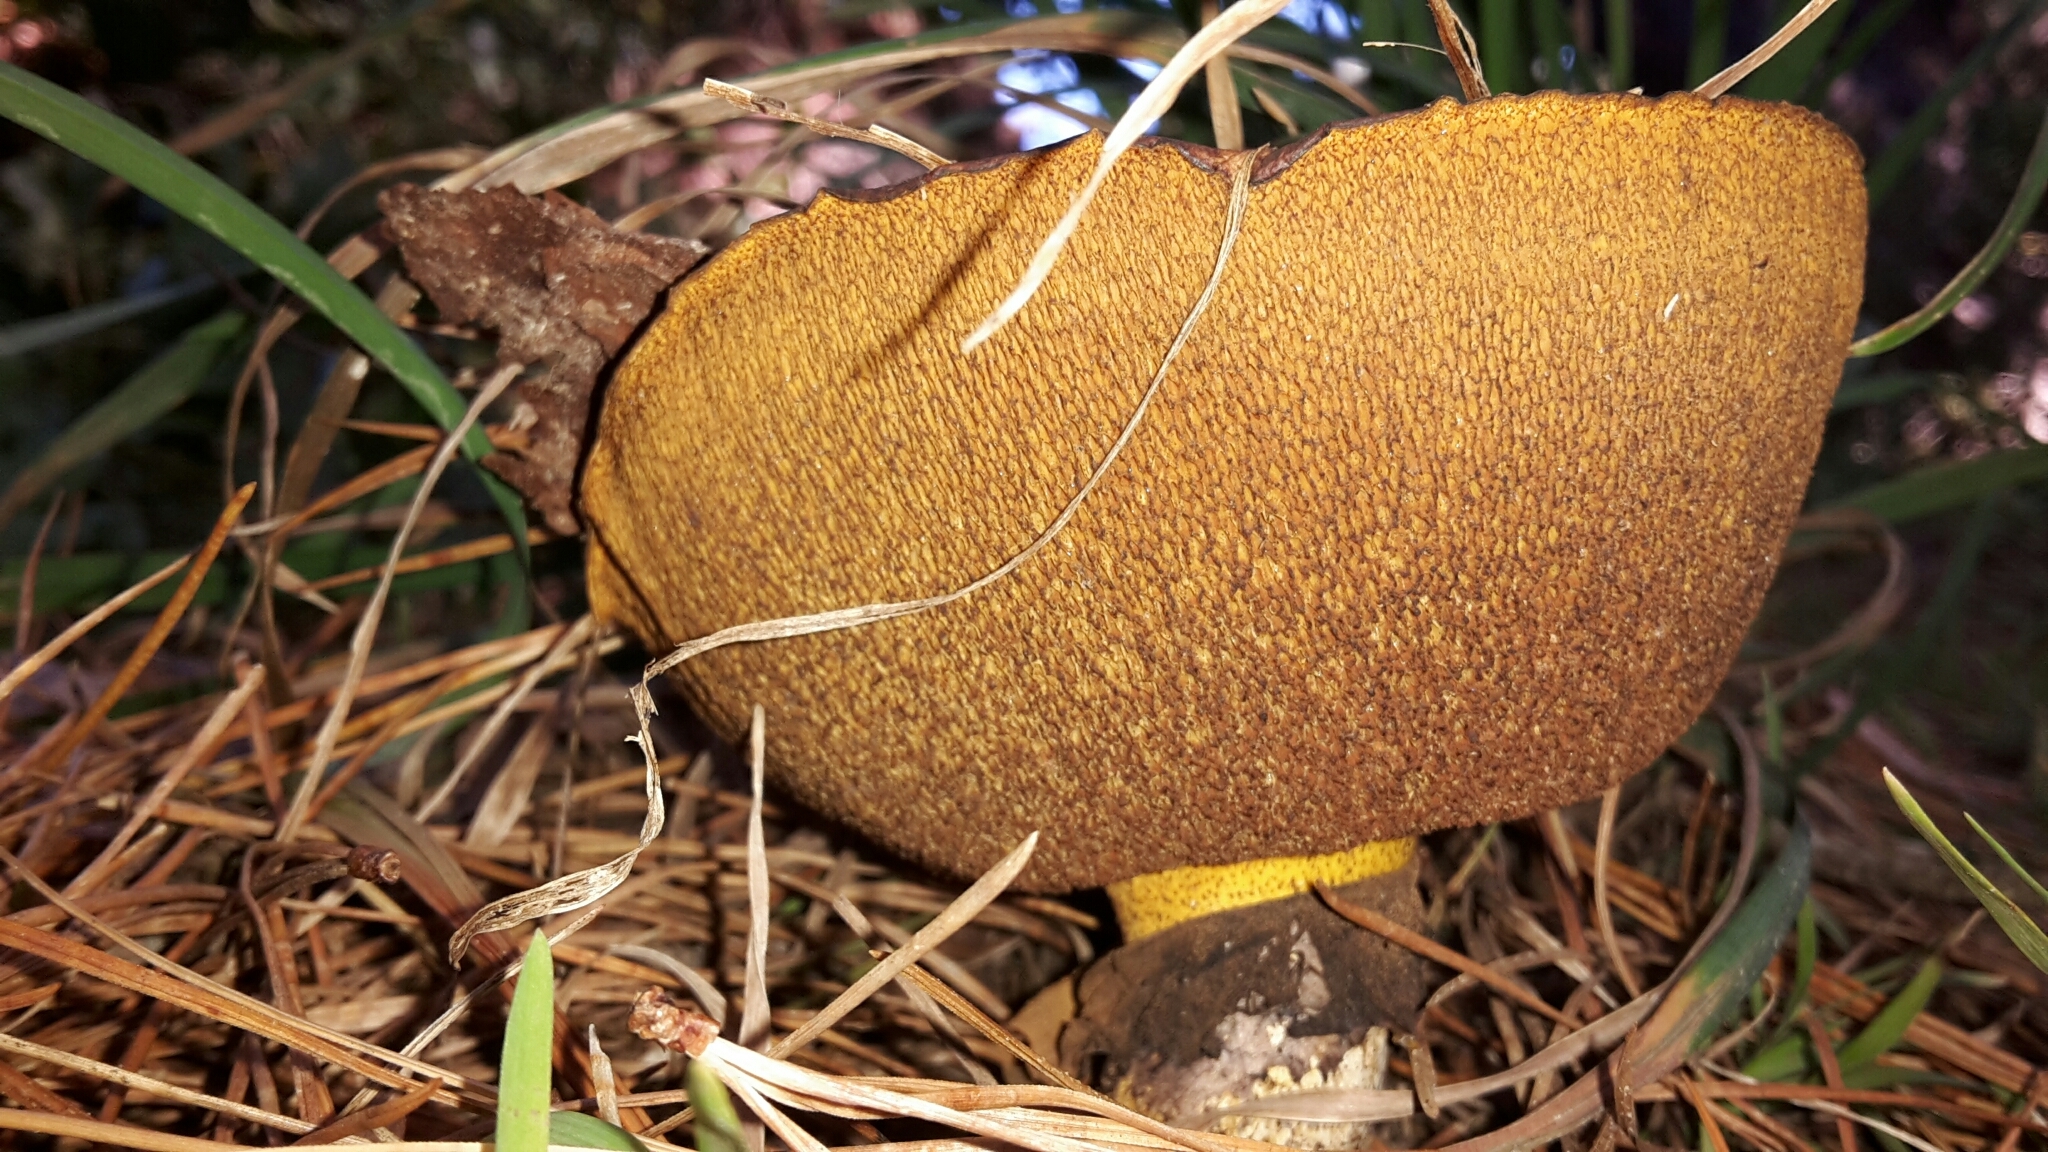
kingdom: Fungi
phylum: Basidiomycota
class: Agaricomycetes
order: Boletales
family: Suillaceae
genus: Suillus
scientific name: Suillus luteus
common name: Slippery jack
